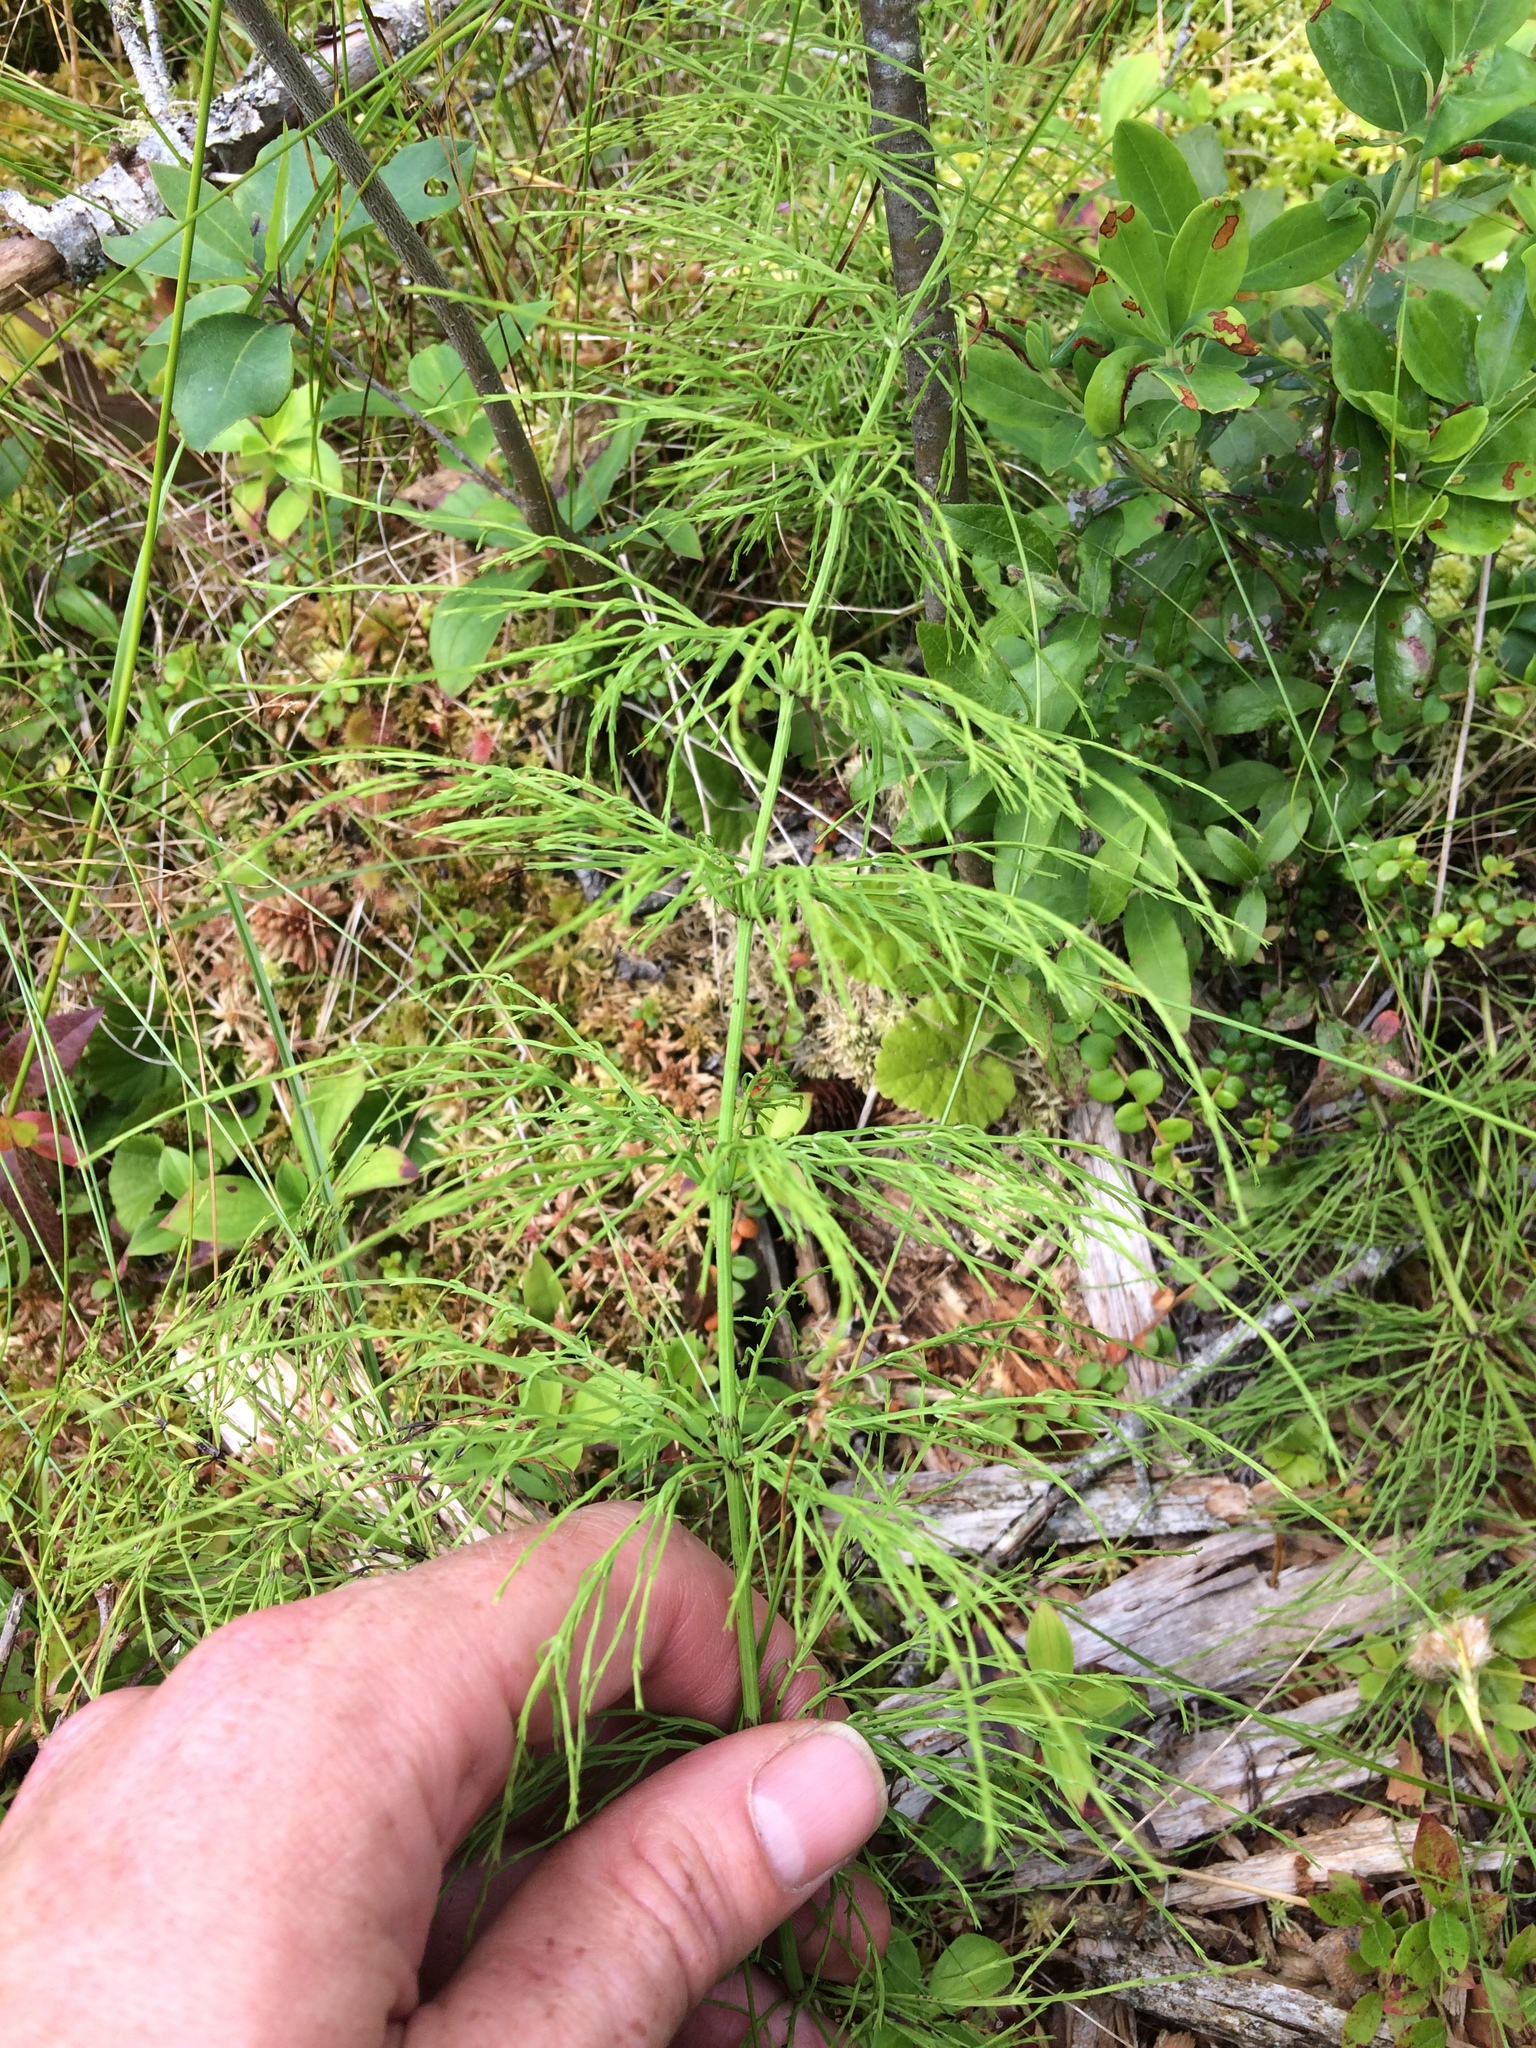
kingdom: Plantae
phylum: Tracheophyta
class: Polypodiopsida
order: Equisetales
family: Equisetaceae
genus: Equisetum
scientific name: Equisetum sylvaticum
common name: Wood horsetail
